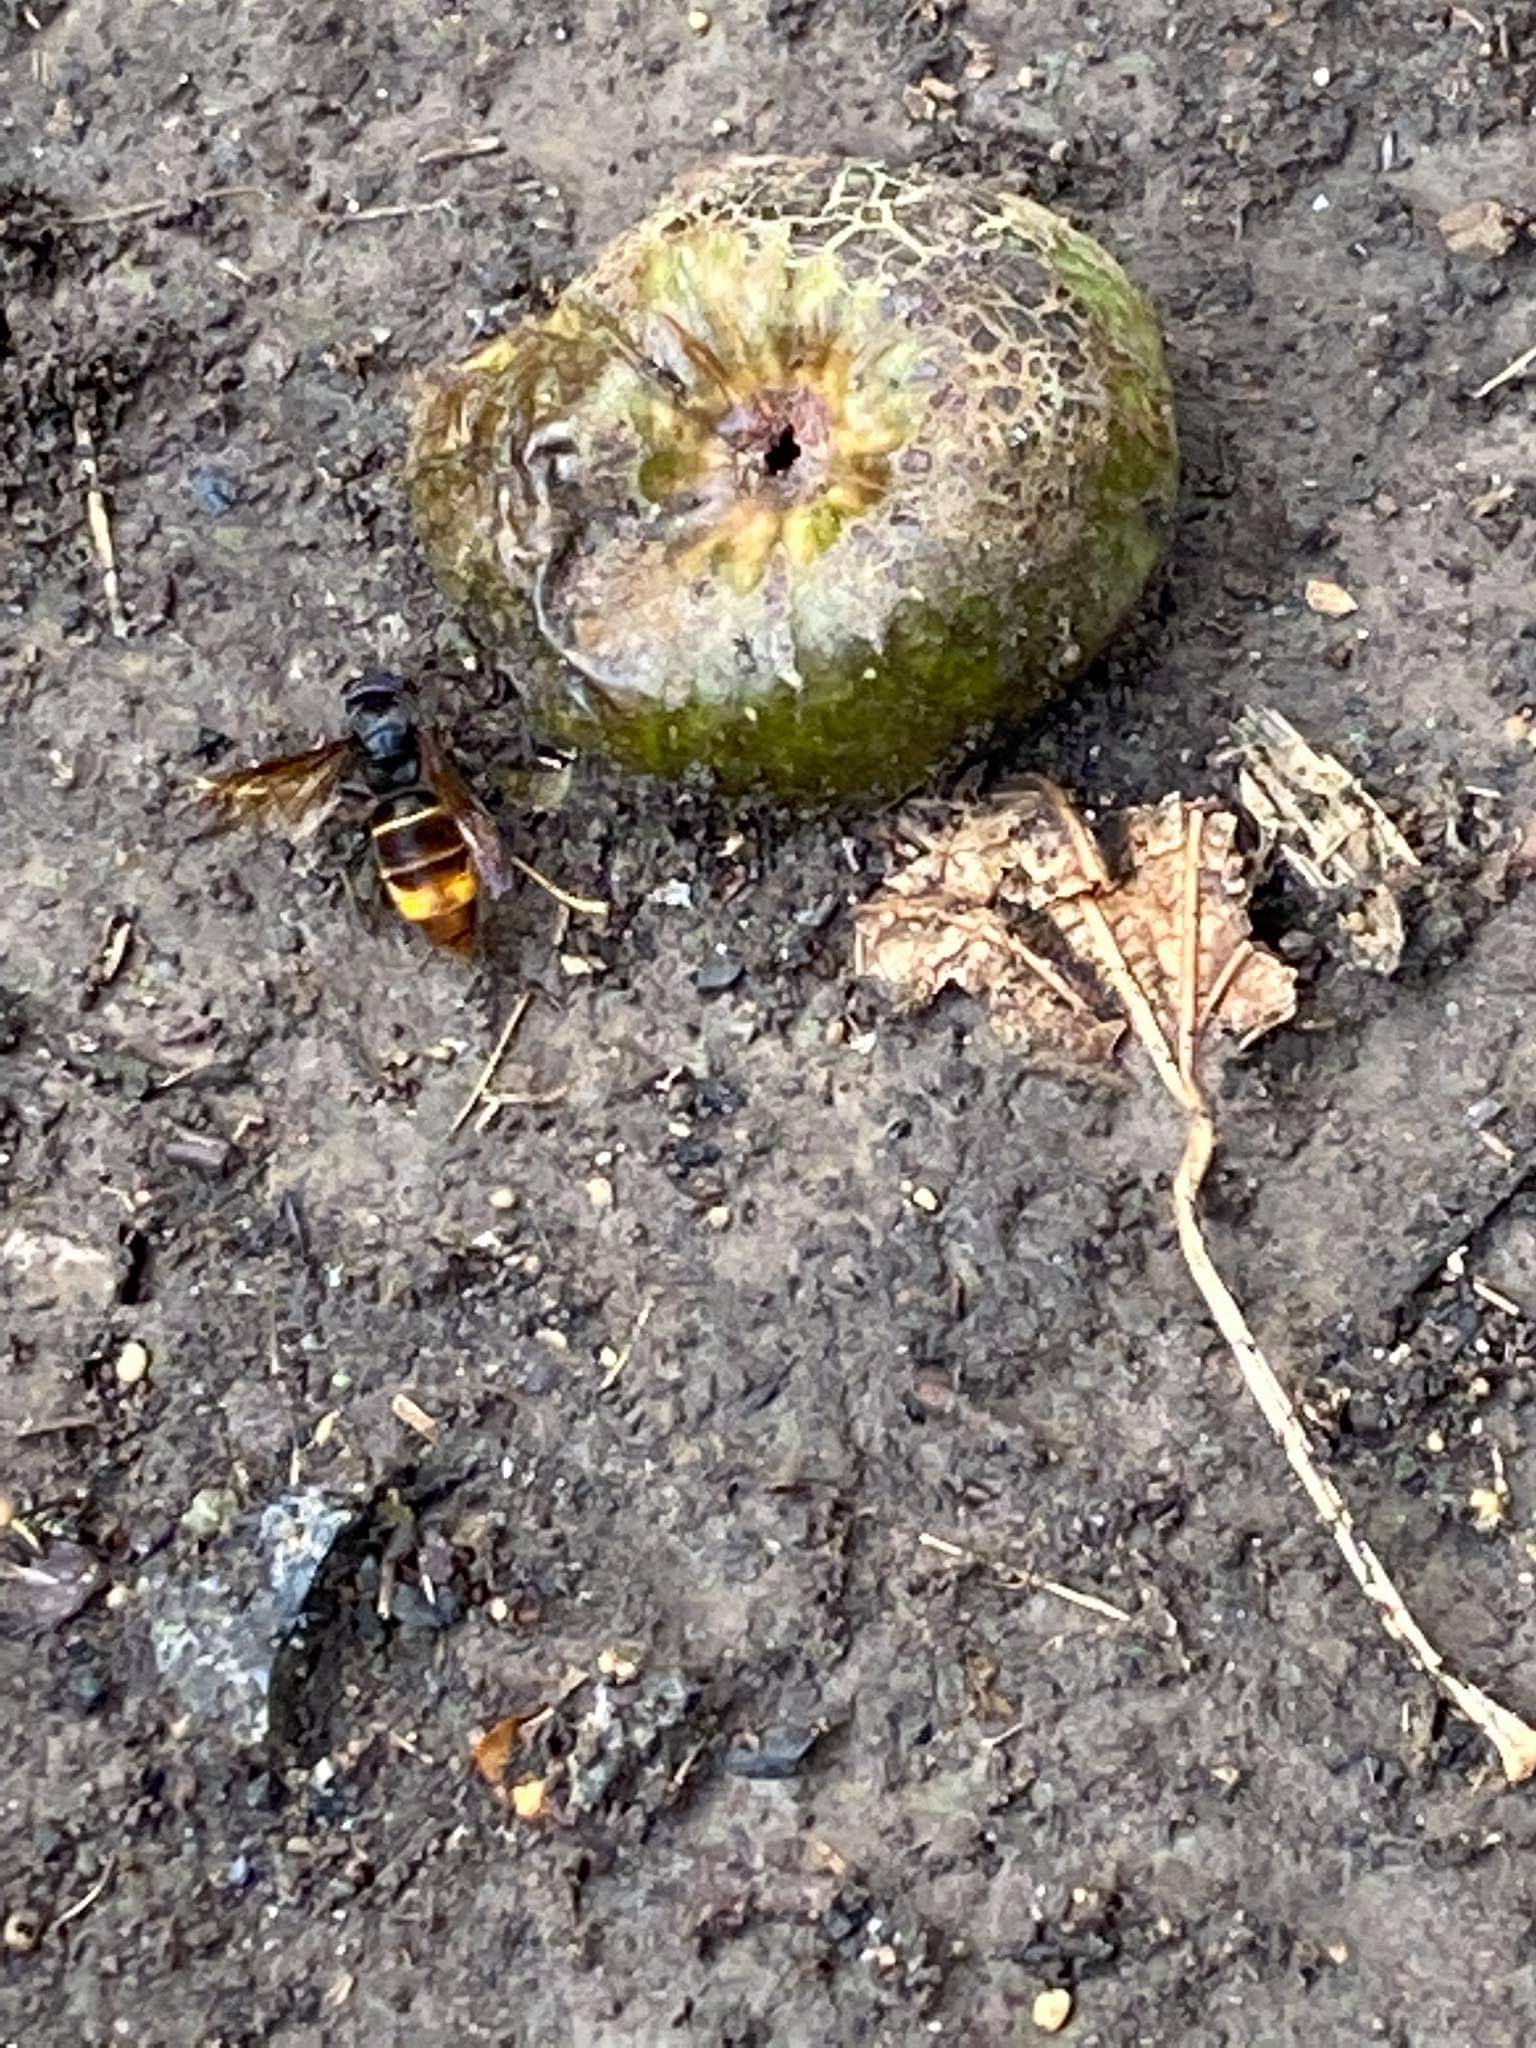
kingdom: Animalia
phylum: Arthropoda
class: Insecta
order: Hymenoptera
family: Vespidae
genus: Vespa
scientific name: Vespa velutina
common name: Asian hornet
